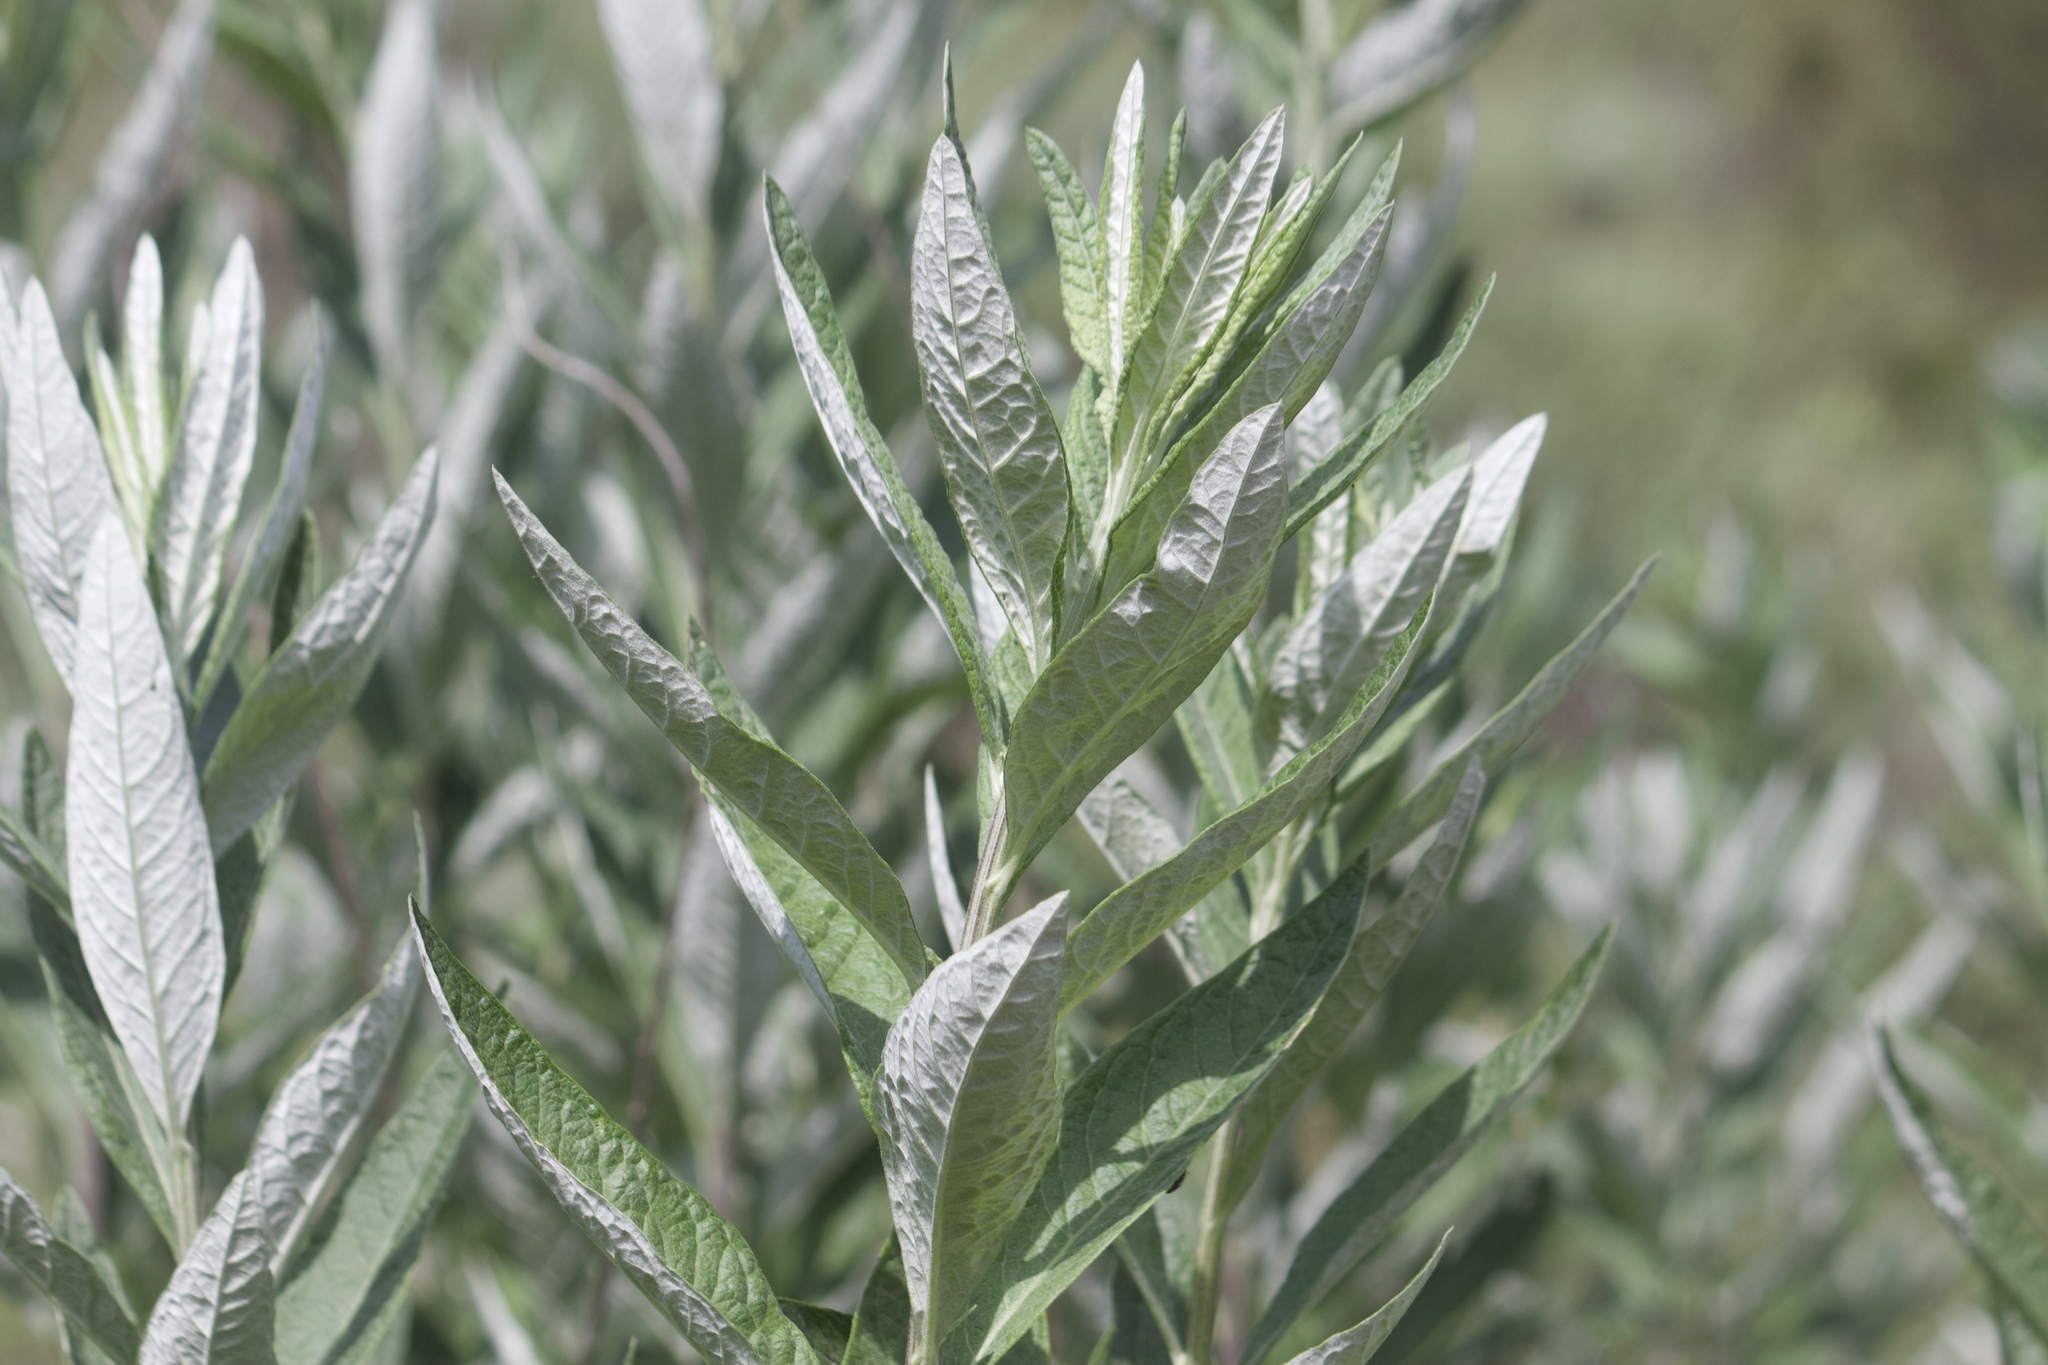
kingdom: Plantae
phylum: Tracheophyta
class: Magnoliopsida
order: Asterales
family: Asteraceae
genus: Artemisia
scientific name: Artemisia douglasiana
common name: Northwest mugwort
